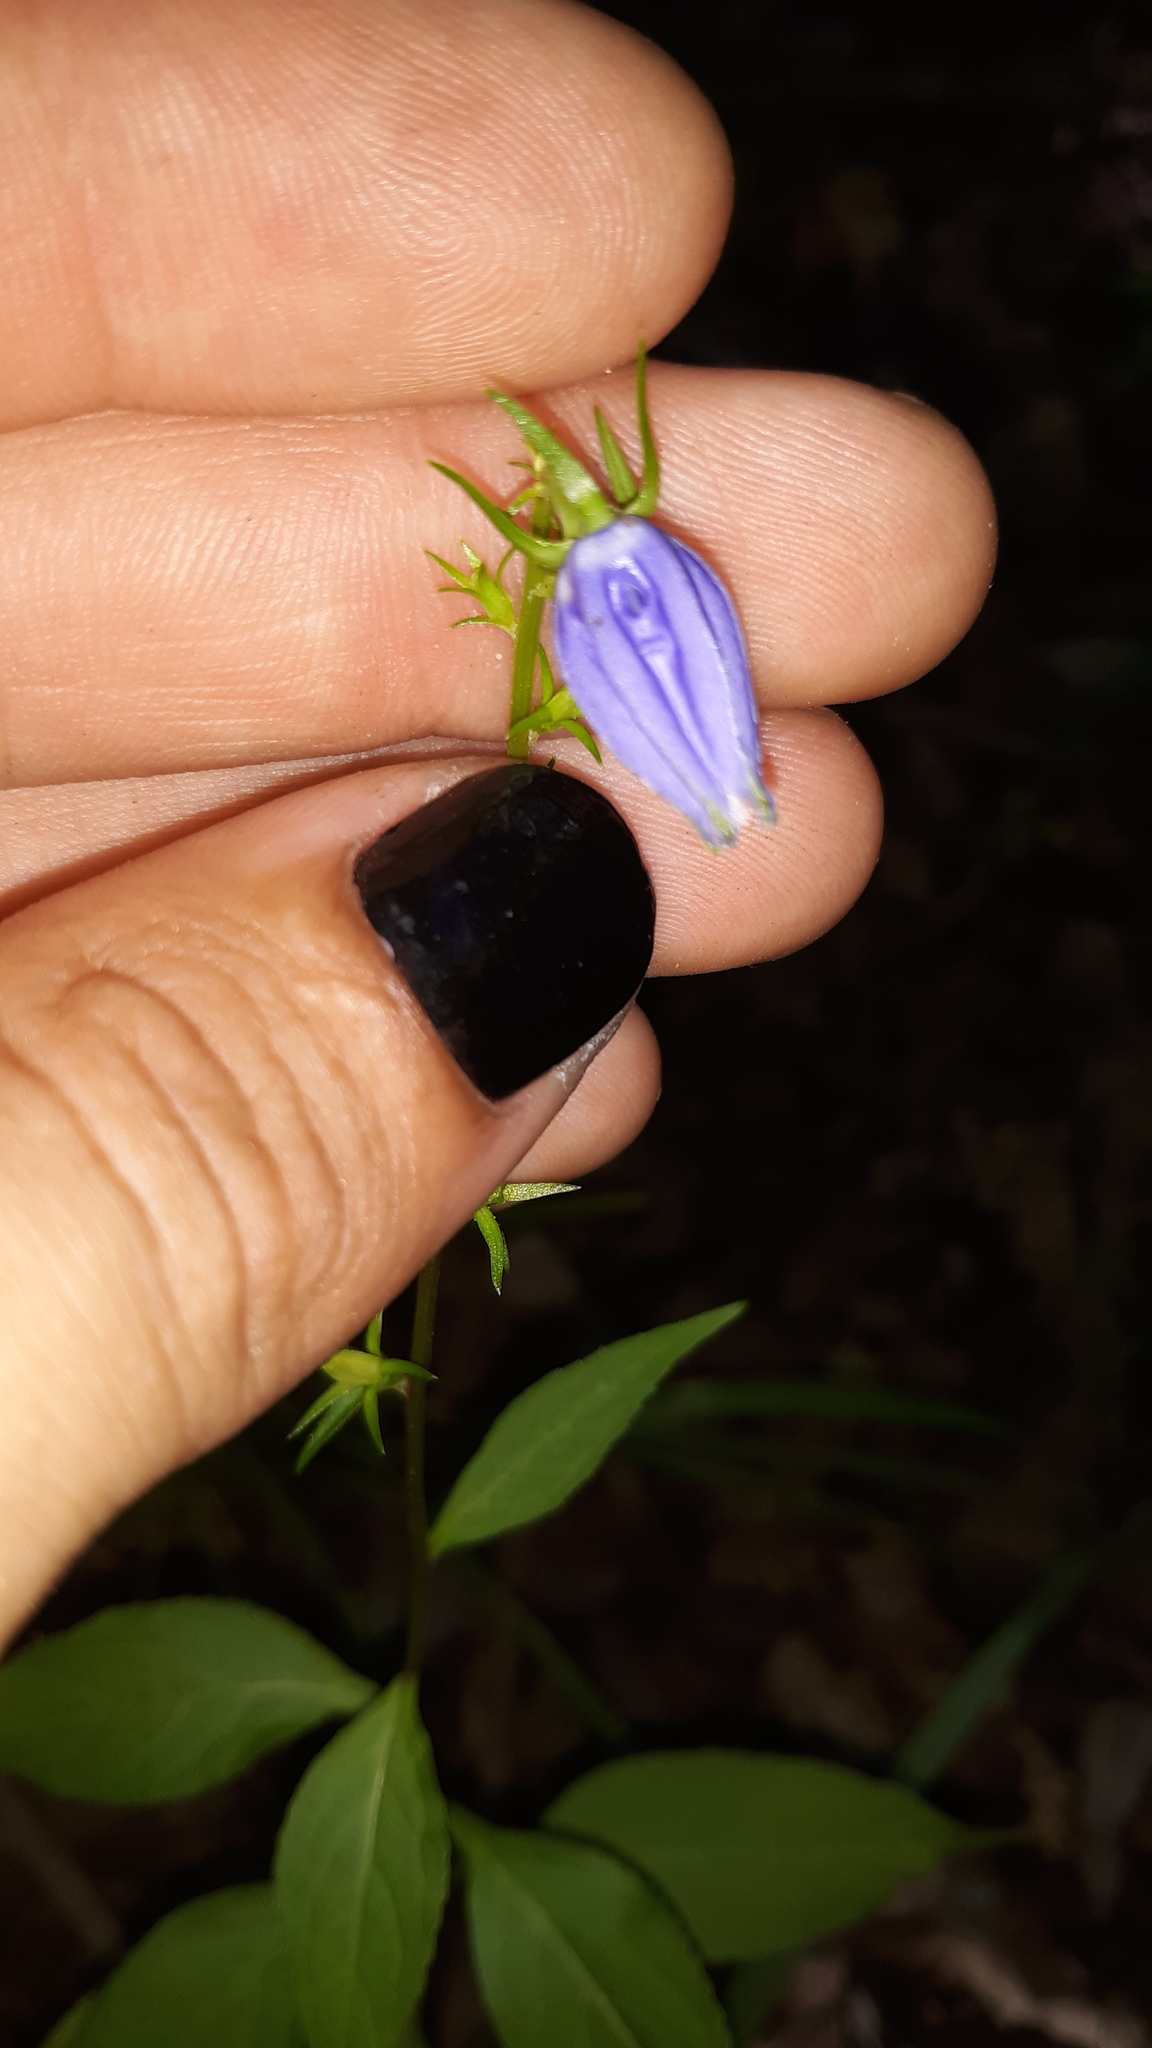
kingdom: Plantae
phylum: Tracheophyta
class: Magnoliopsida
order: Asterales
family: Campanulaceae
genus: Campanulastrum
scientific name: Campanulastrum americanum
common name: American bellflower
